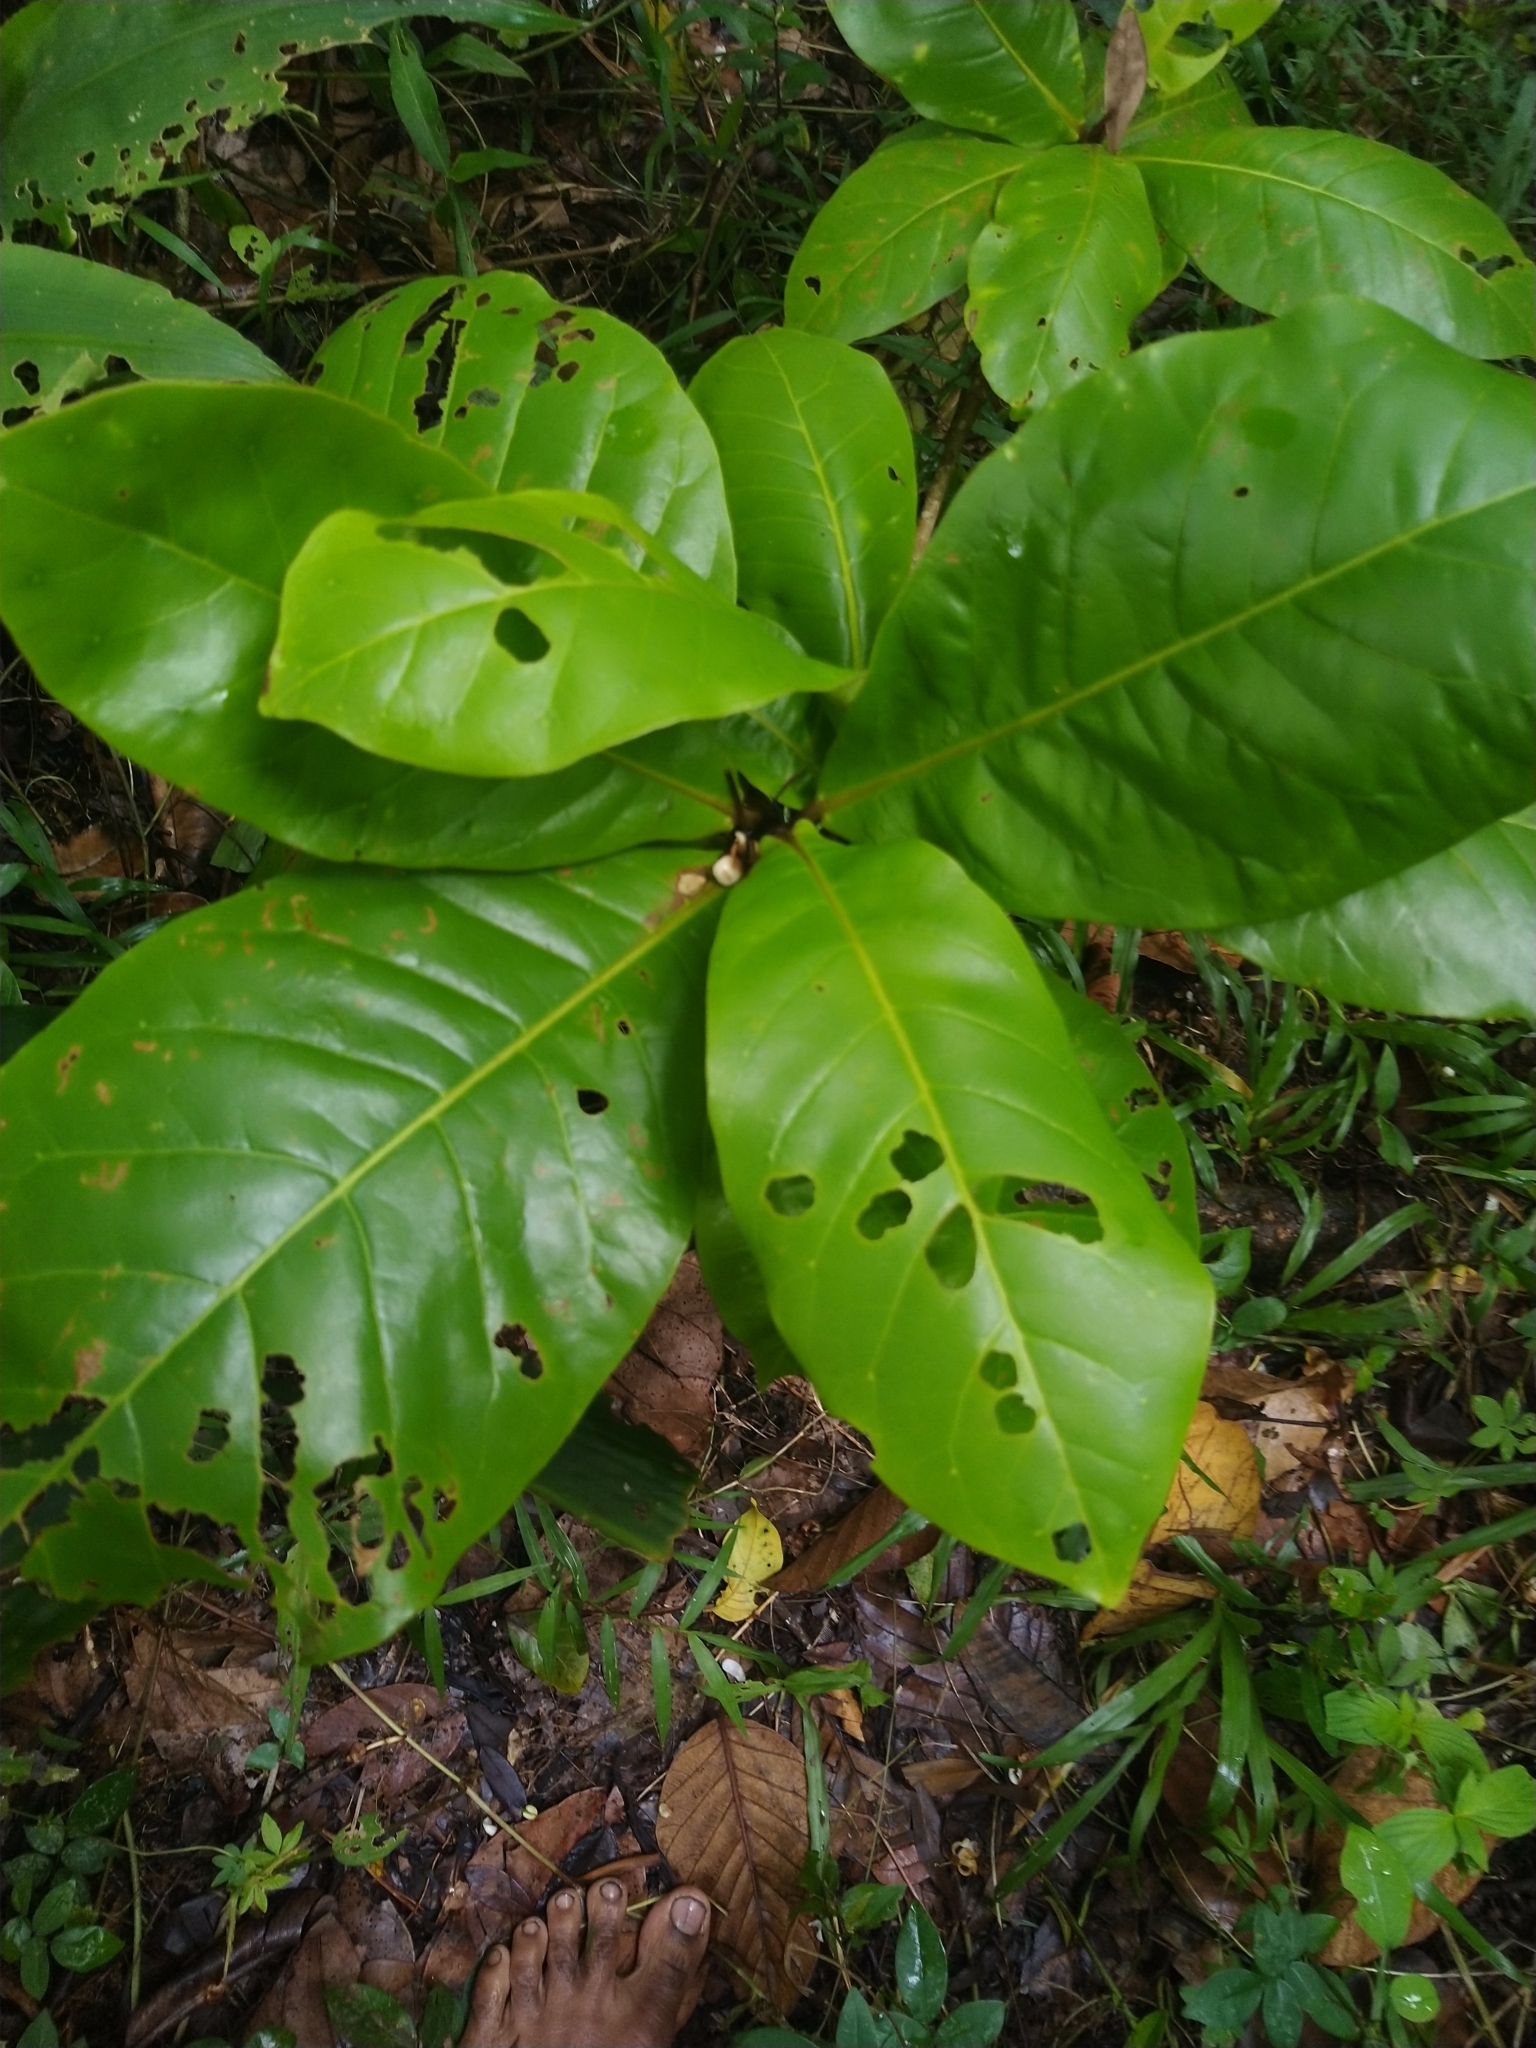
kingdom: Plantae
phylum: Tracheophyta
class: Magnoliopsida
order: Myrtales
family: Combretaceae
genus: Terminalia
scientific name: Terminalia catappa
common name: Tropical almond
